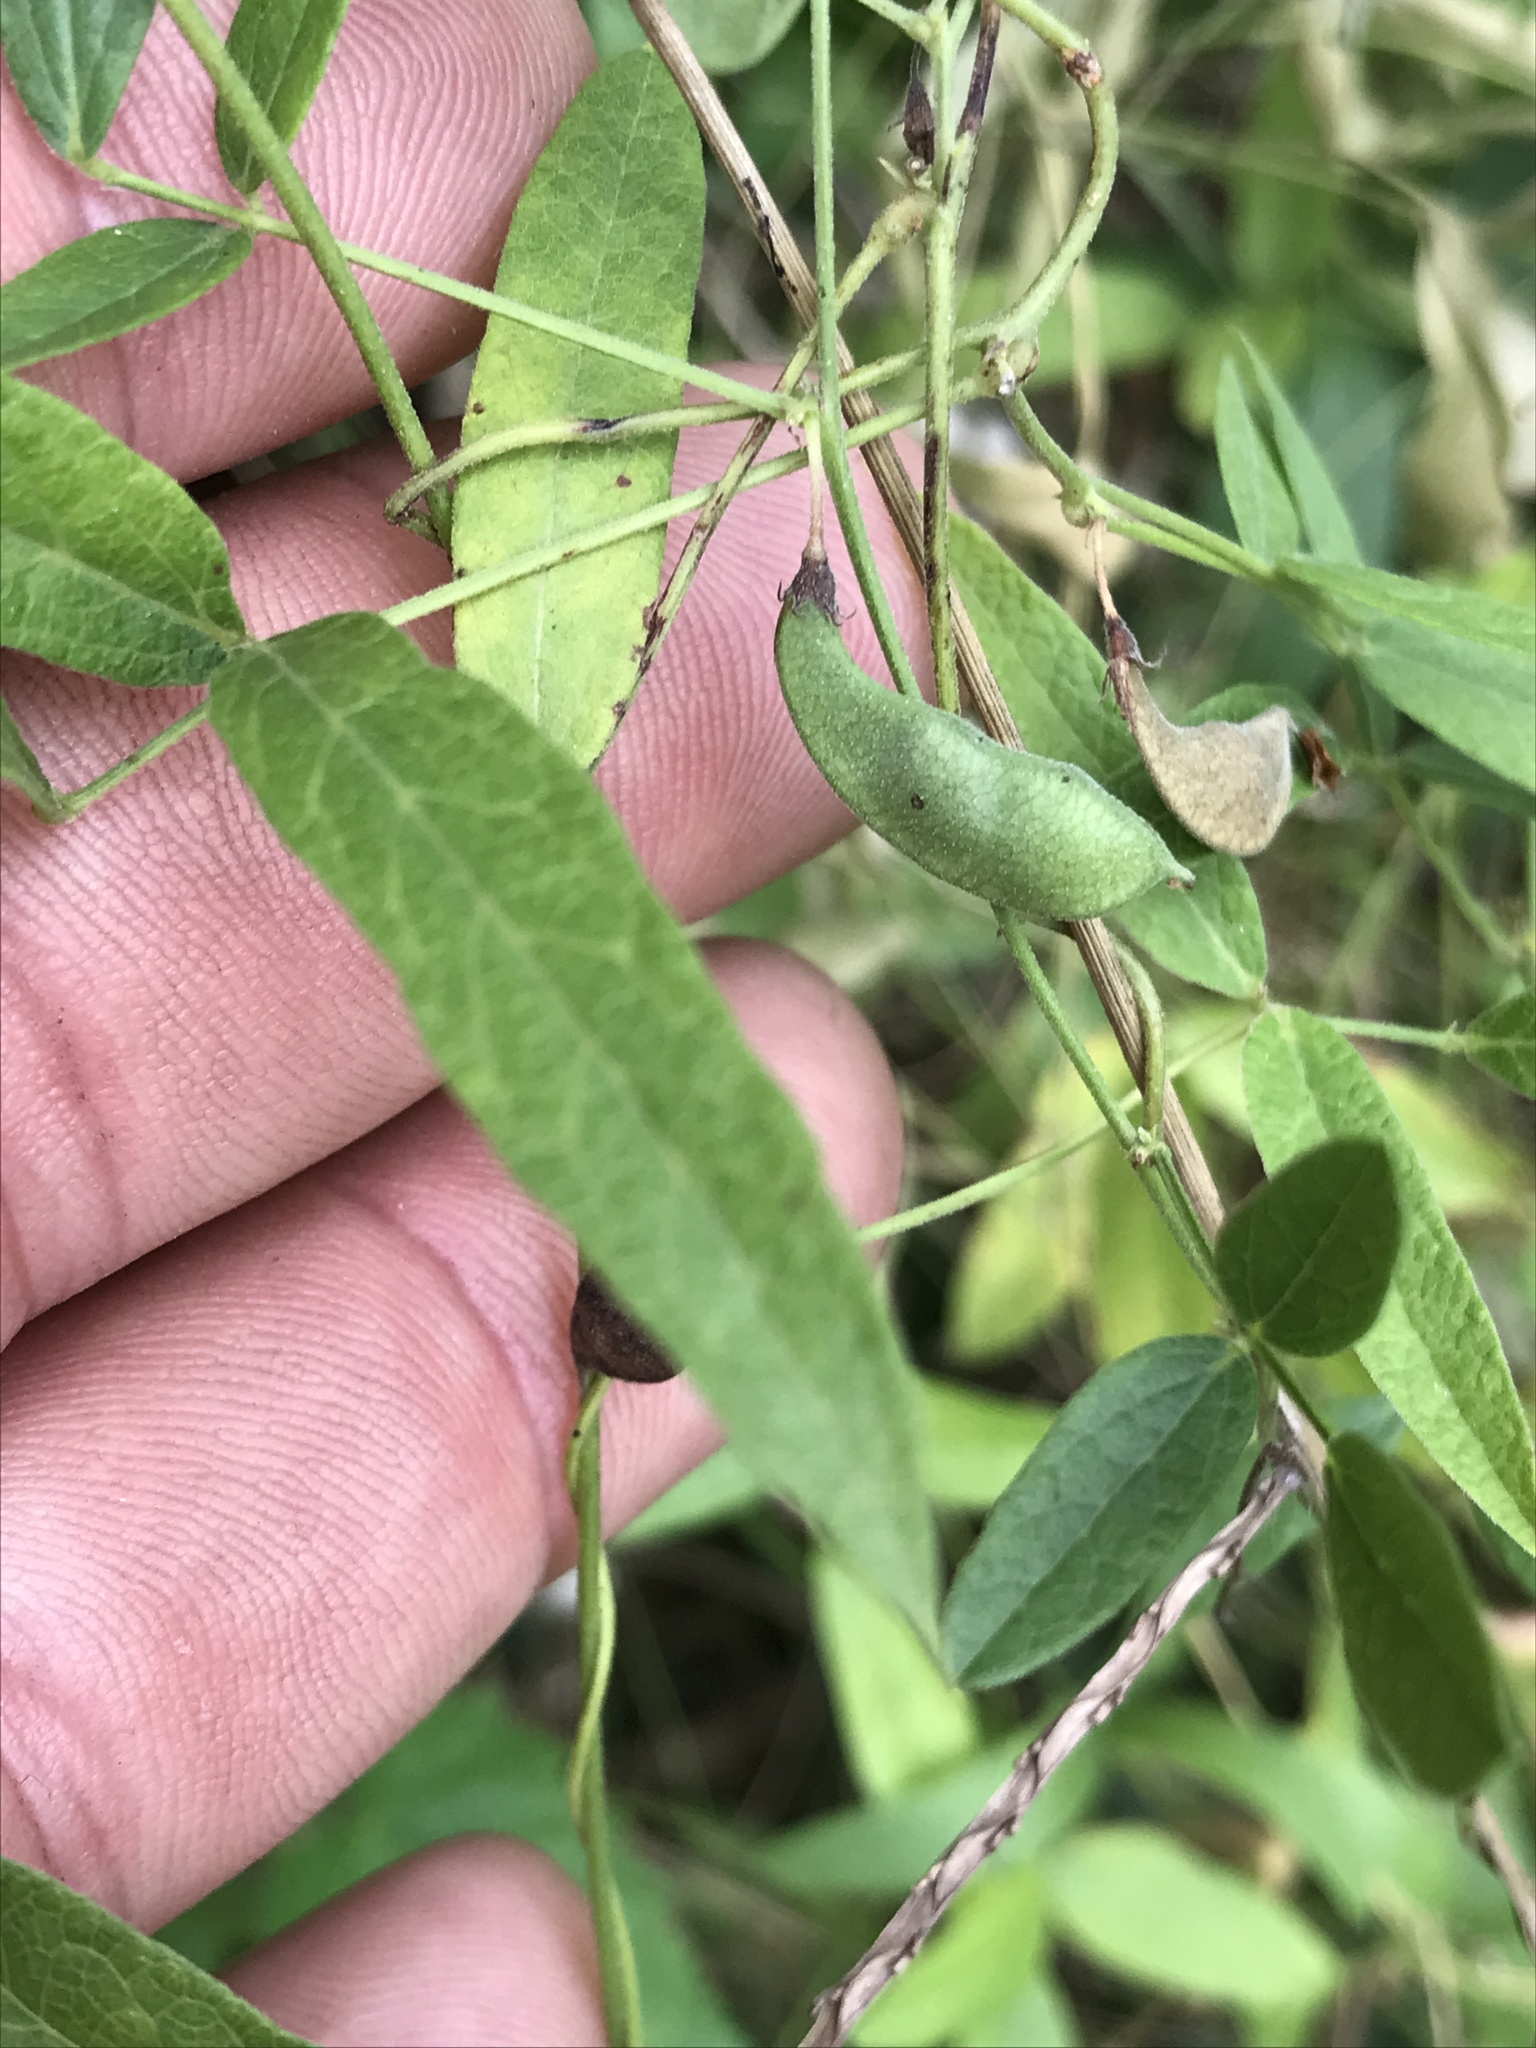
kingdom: Plantae
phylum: Tracheophyta
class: Magnoliopsida
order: Fabales
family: Fabaceae
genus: Rhynchosia
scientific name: Rhynchosia senna
